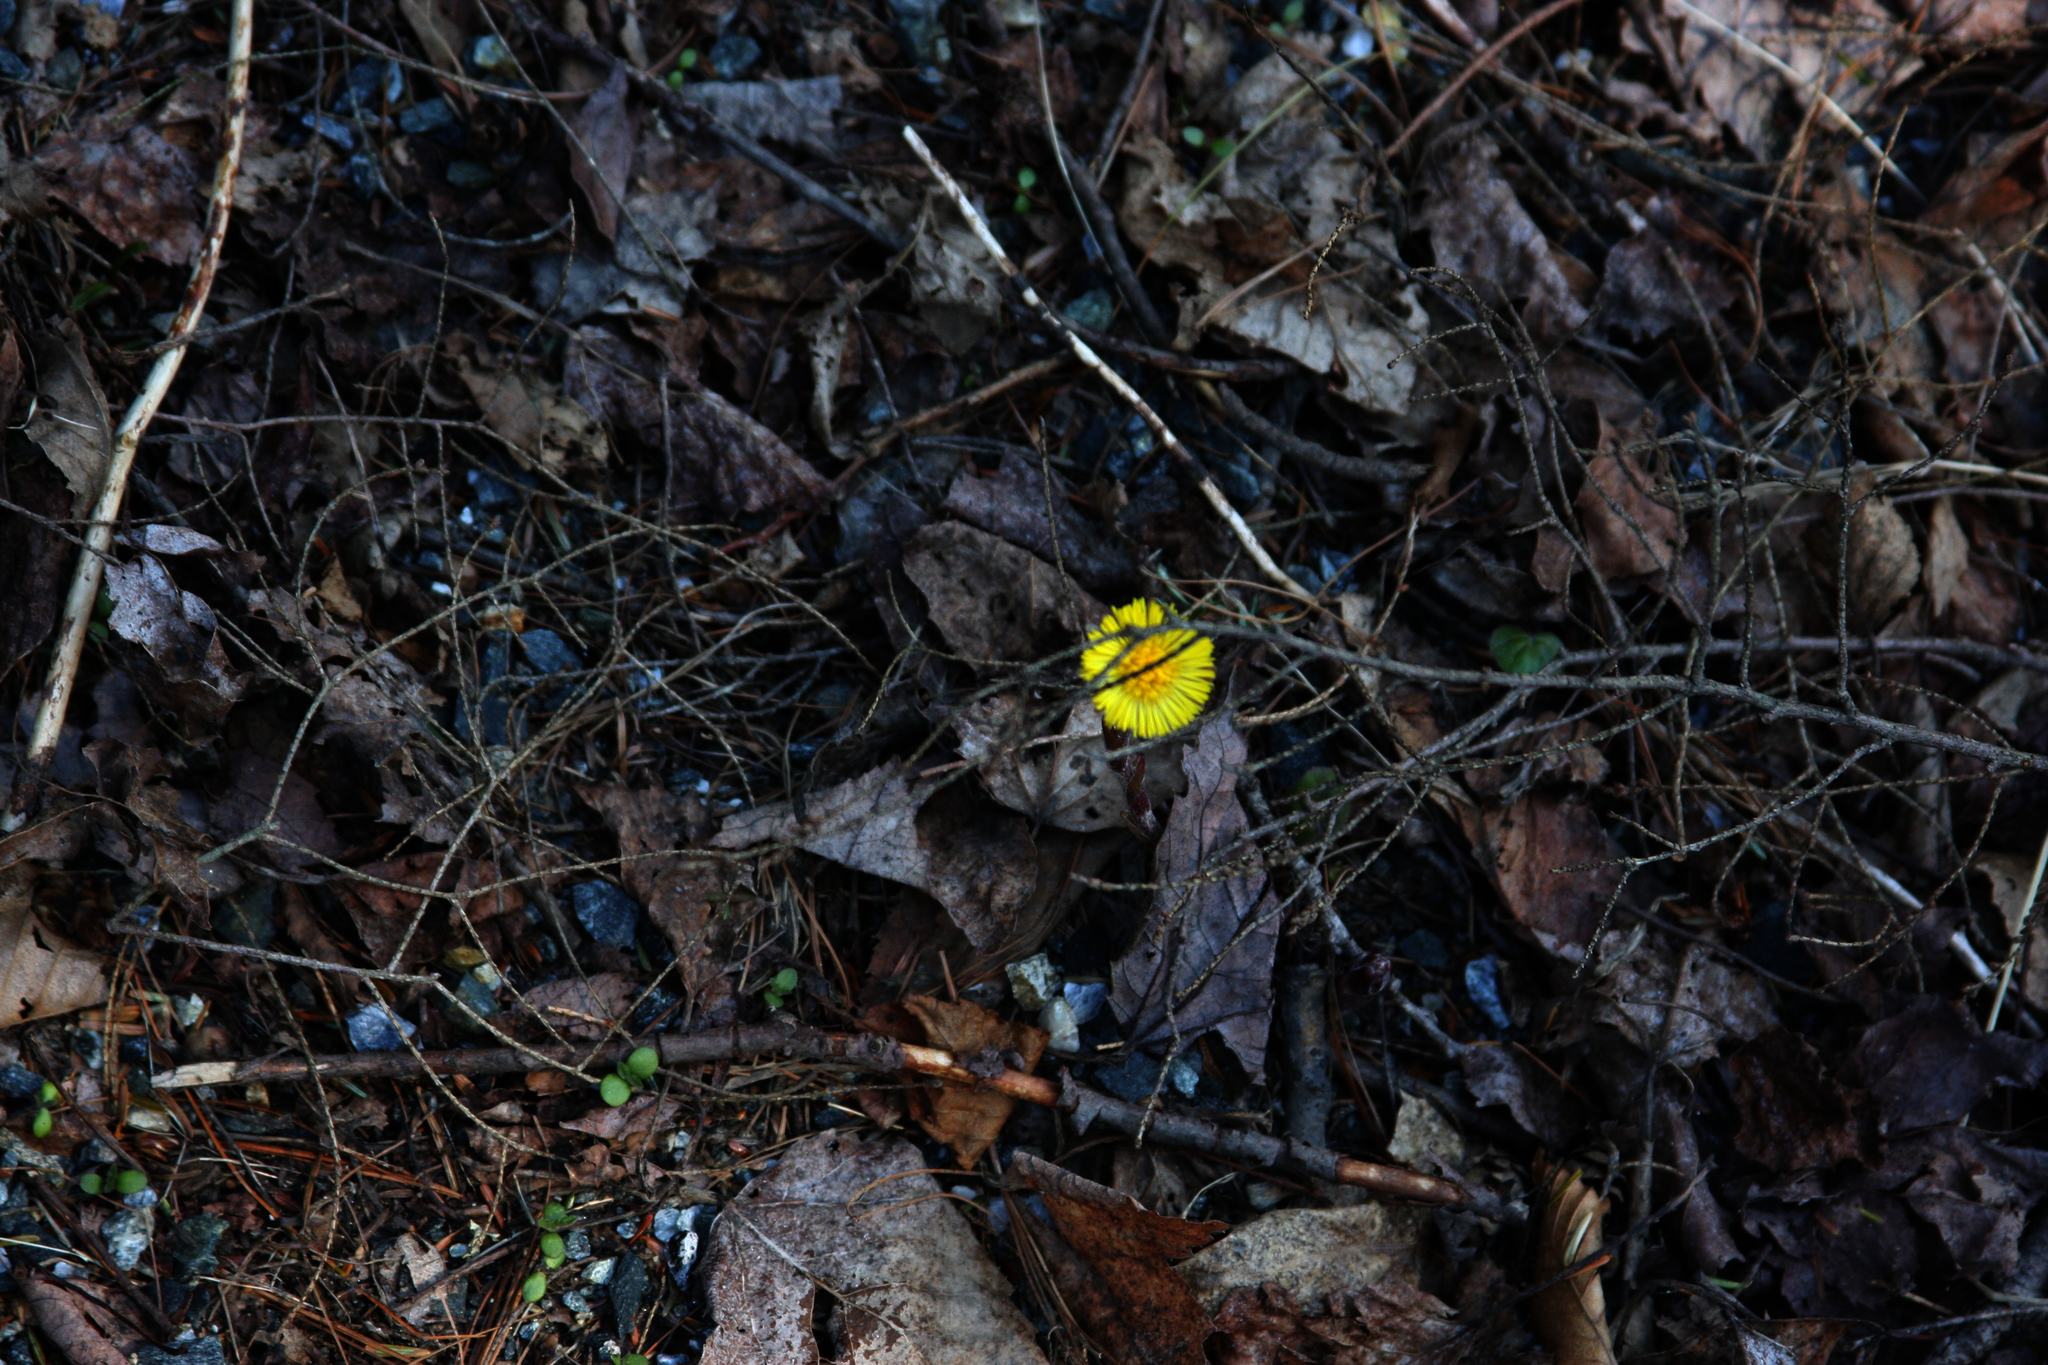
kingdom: Plantae
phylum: Tracheophyta
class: Magnoliopsida
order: Asterales
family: Asteraceae
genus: Tussilago
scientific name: Tussilago farfara
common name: Coltsfoot
